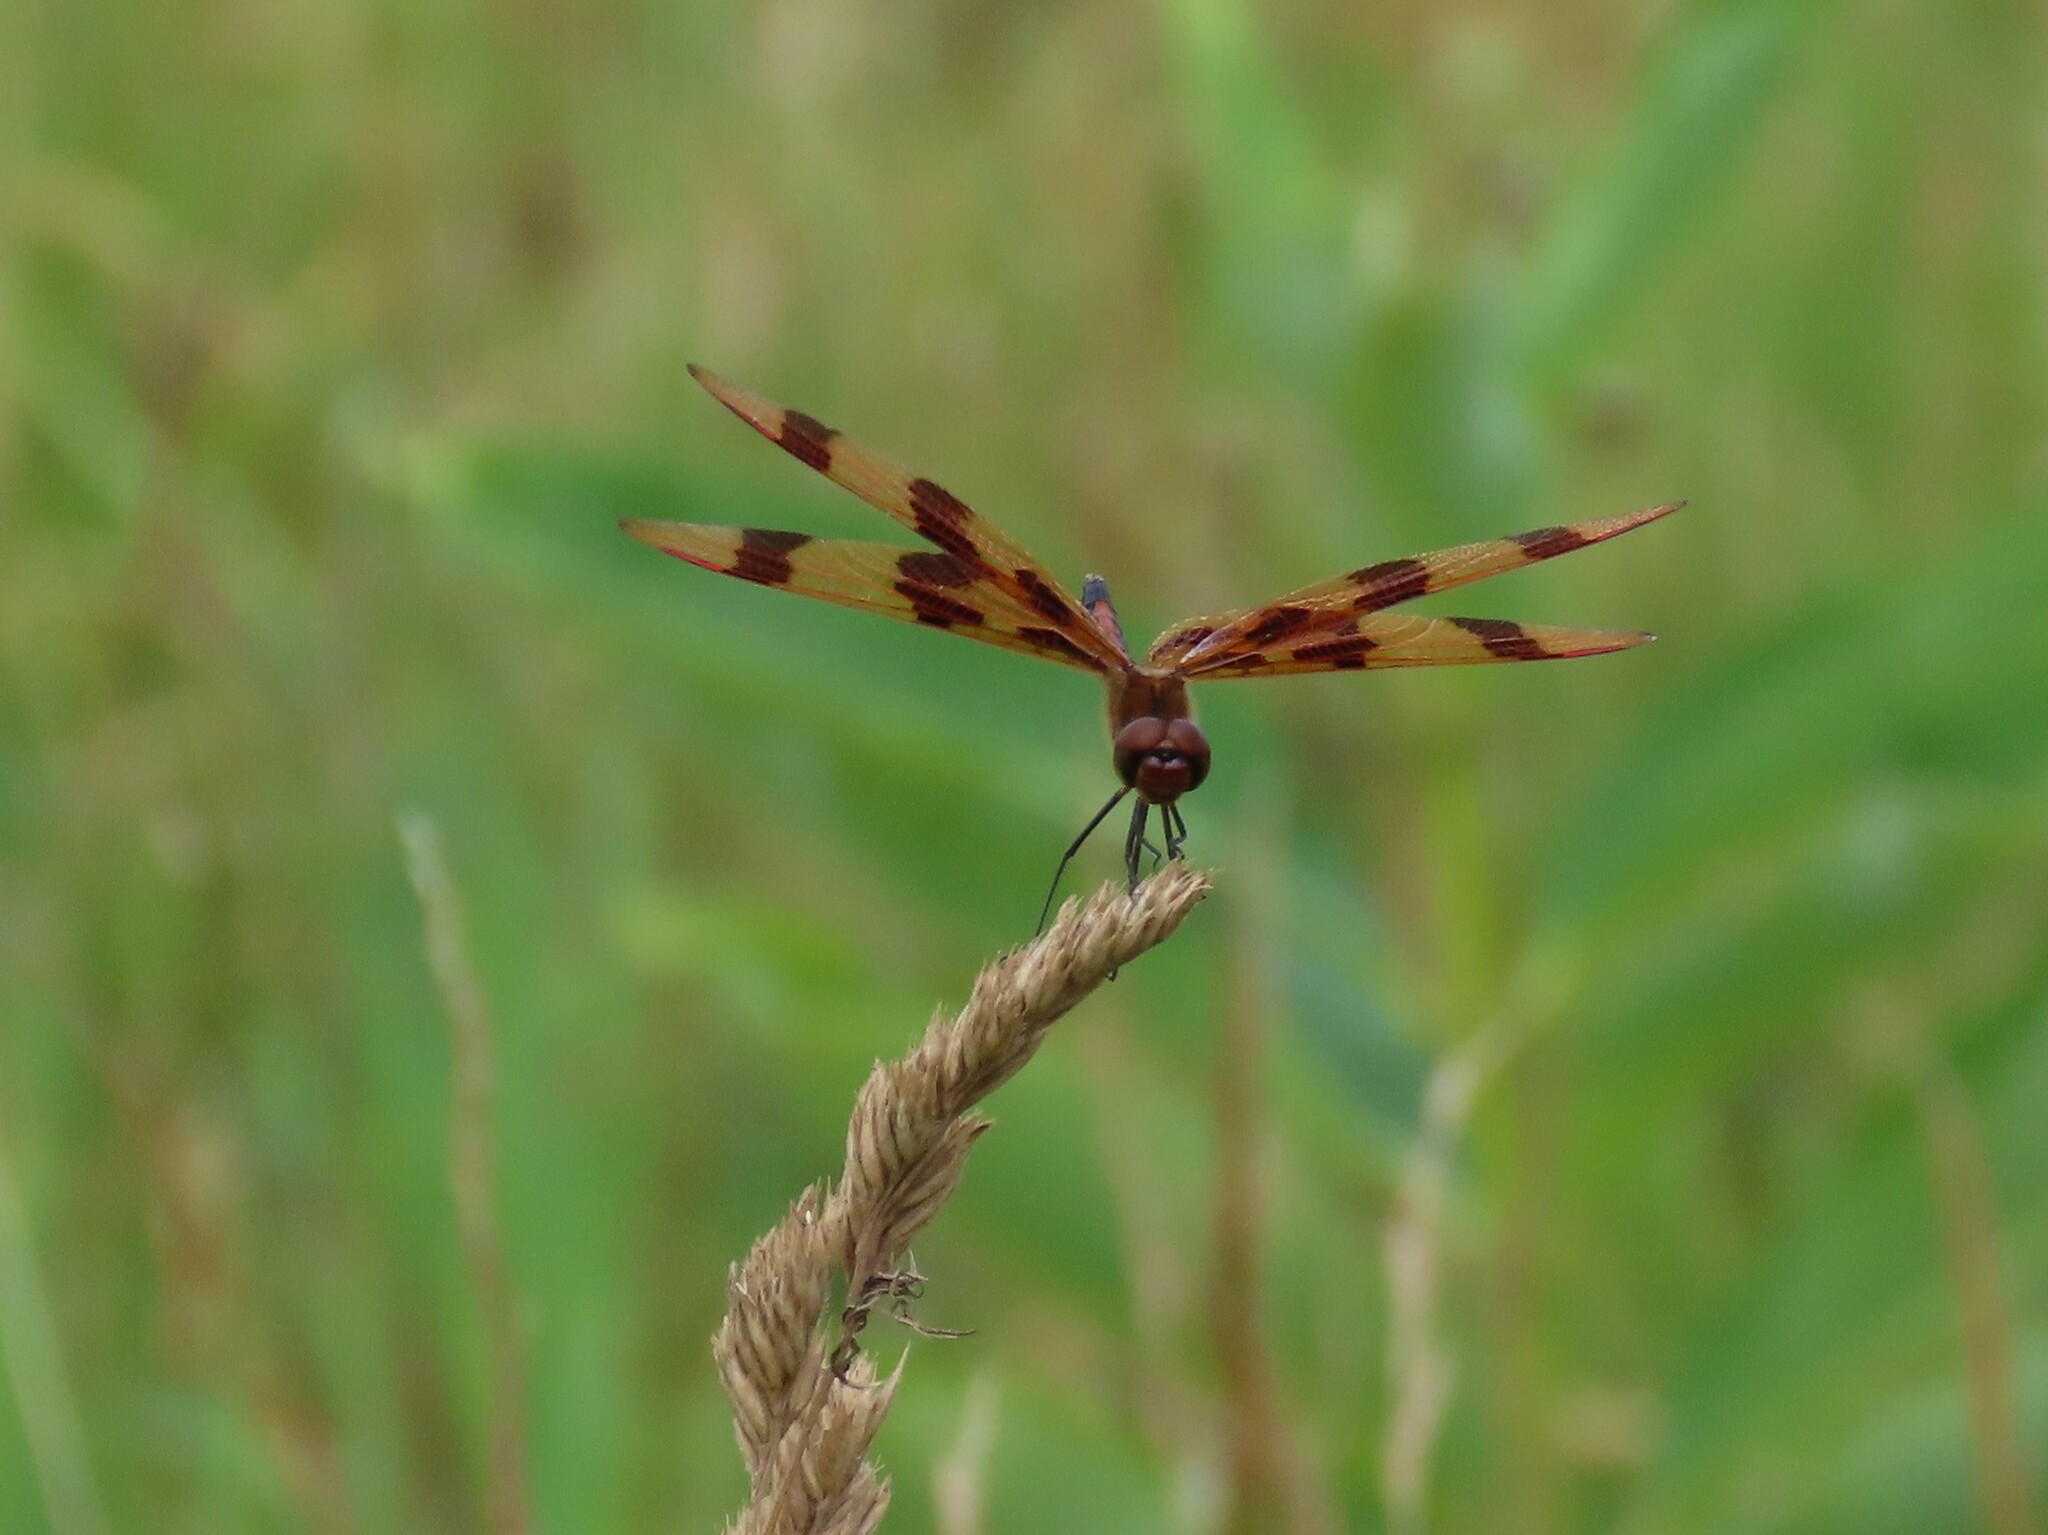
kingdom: Animalia
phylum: Arthropoda
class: Insecta
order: Odonata
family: Libellulidae
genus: Celithemis
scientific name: Celithemis eponina
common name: Halloween pennant
